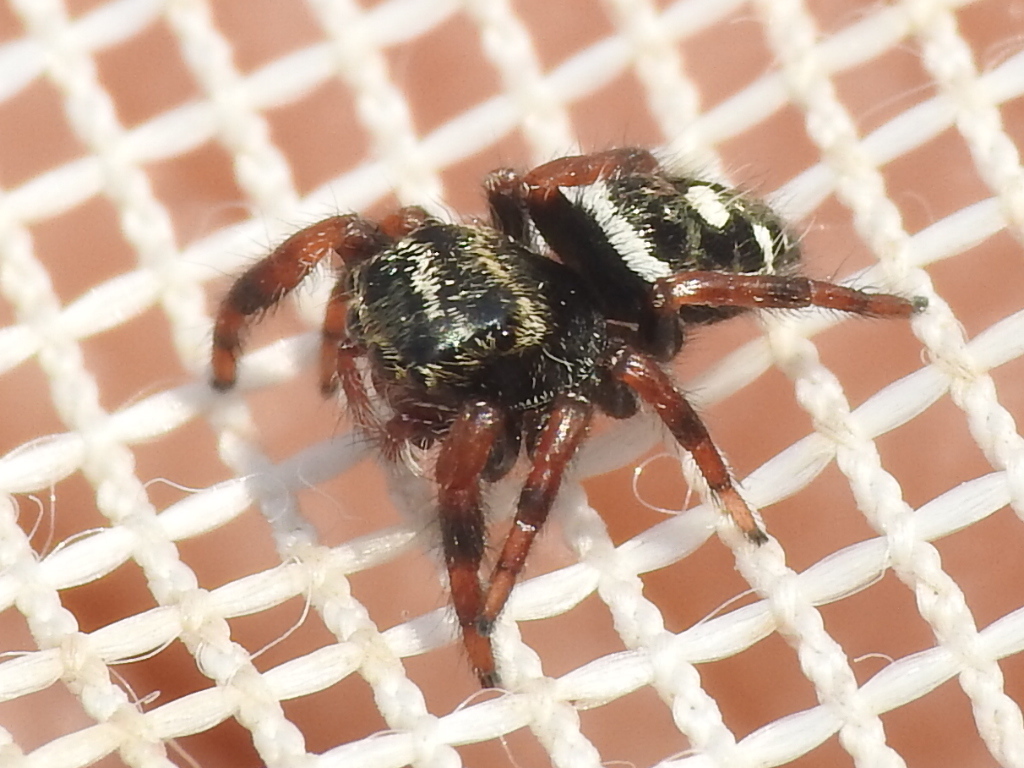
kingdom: Animalia
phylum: Arthropoda
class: Arachnida
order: Araneae
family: Salticidae
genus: Phidippus
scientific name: Phidippus audax
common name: Bold jumper
